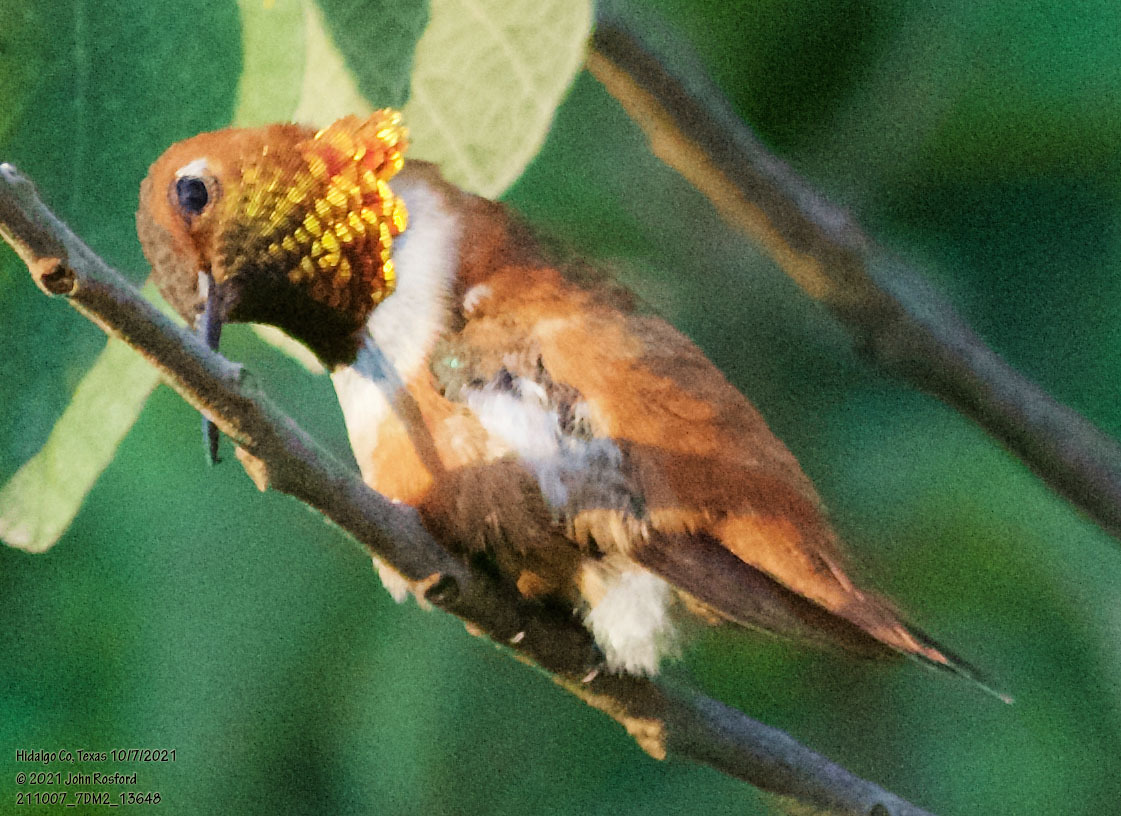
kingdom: Animalia
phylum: Chordata
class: Aves
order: Apodiformes
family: Trochilidae
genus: Selasphorus
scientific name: Selasphorus rufus
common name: Rufous hummingbird
